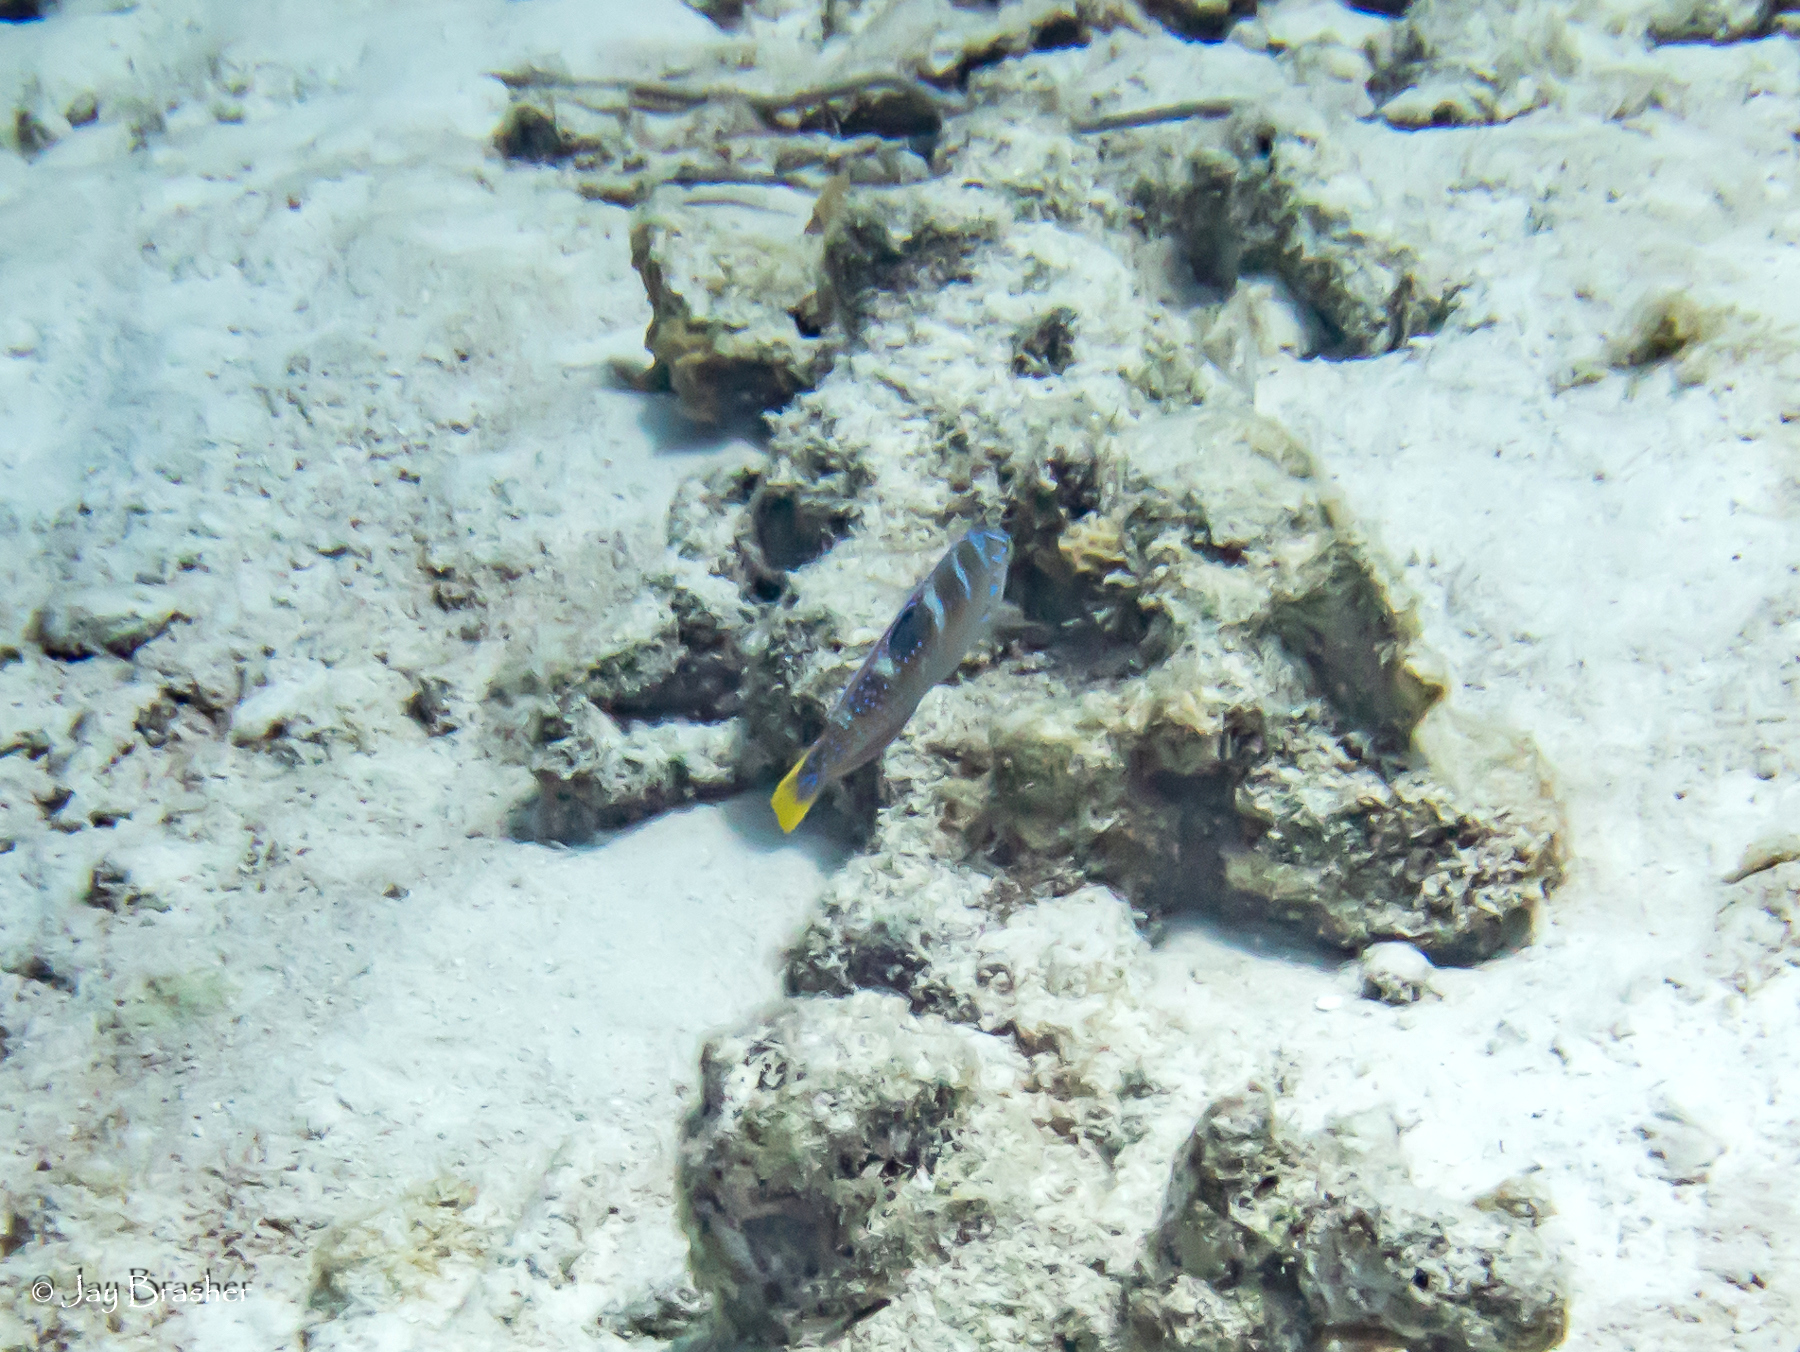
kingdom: Animalia
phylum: Chordata
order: Perciformes
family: Labridae
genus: Halichoeres
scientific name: Halichoeres radiatus
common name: Puddingwife
